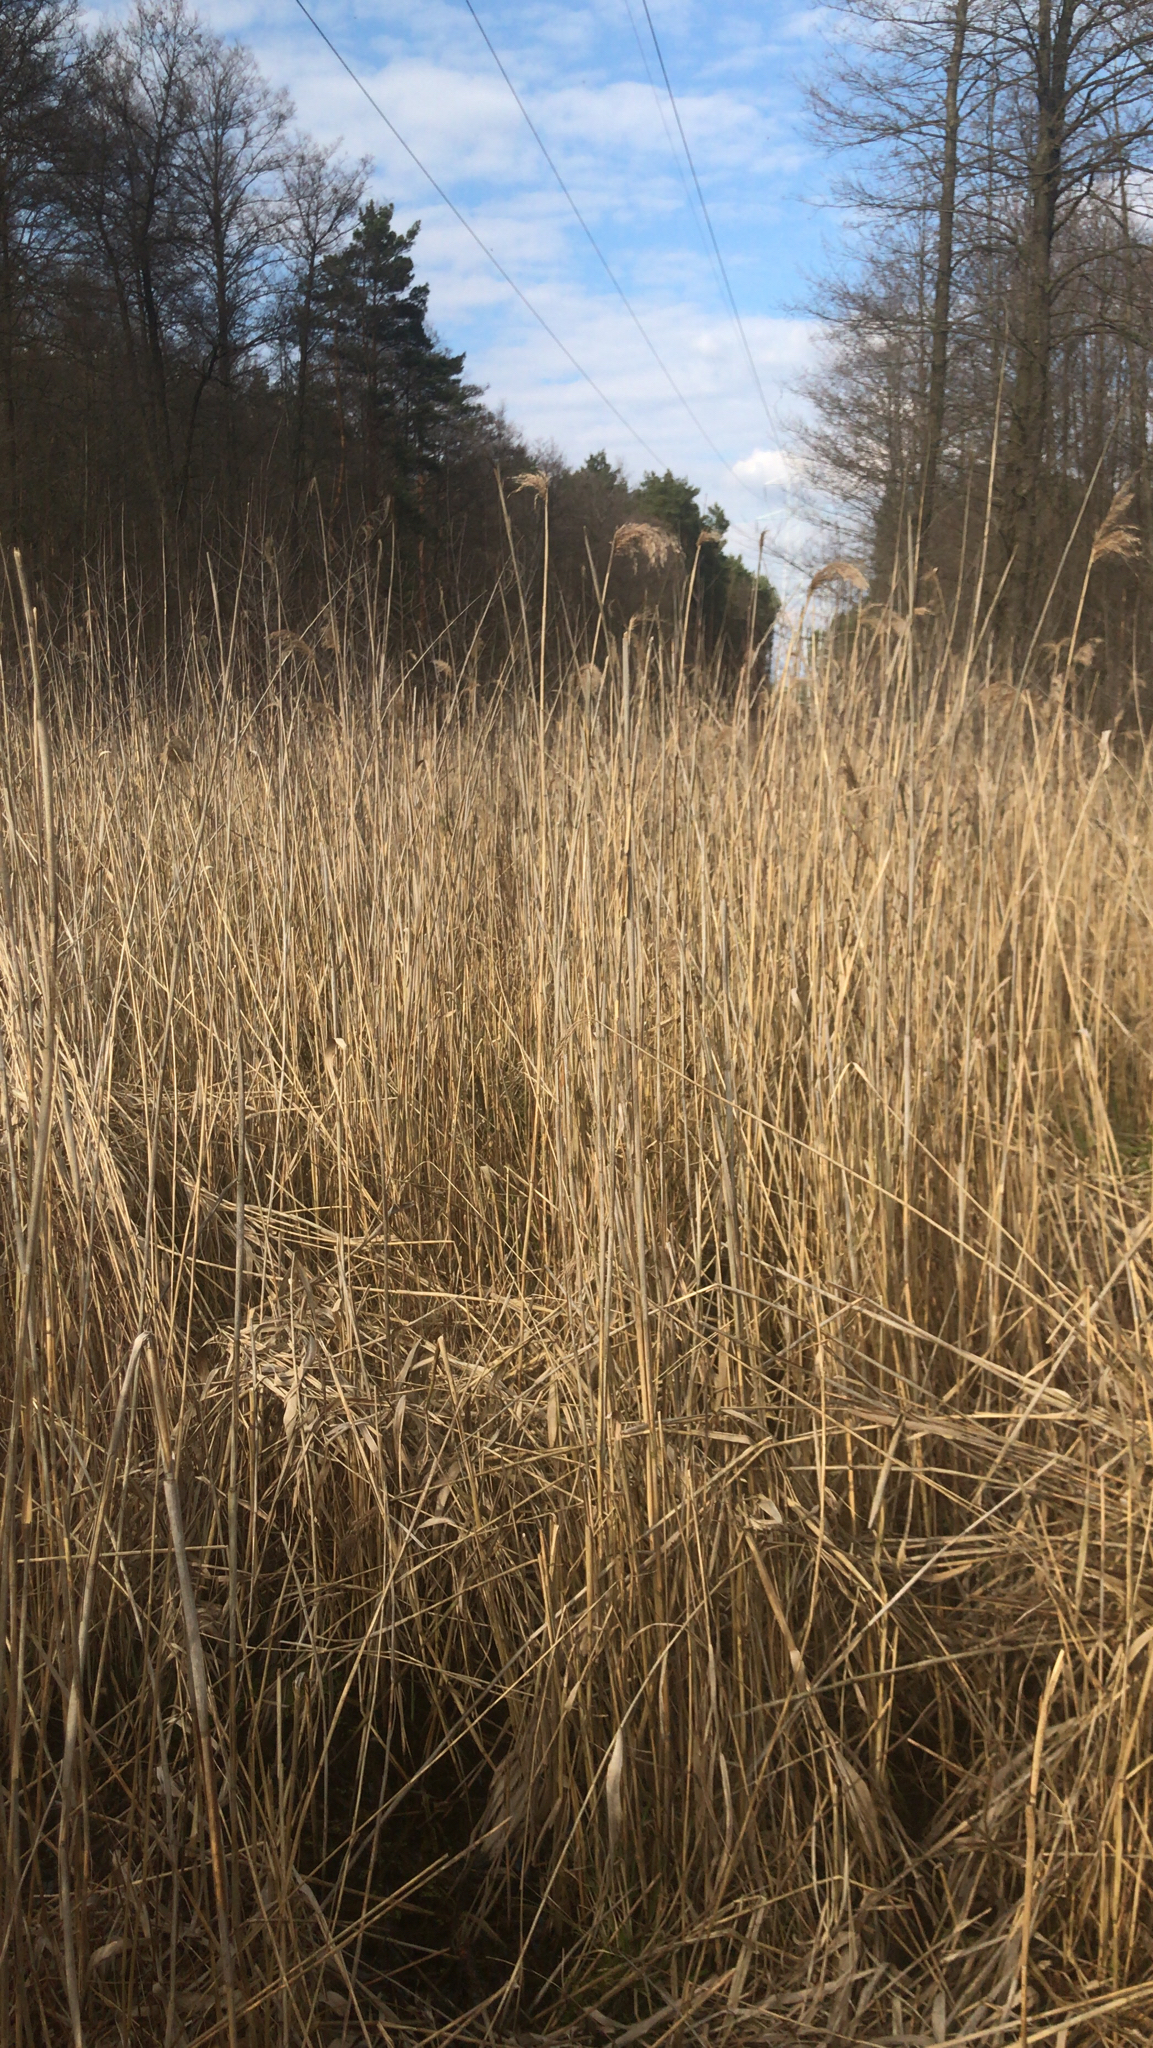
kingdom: Plantae
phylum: Tracheophyta
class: Liliopsida
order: Poales
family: Poaceae
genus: Phragmites
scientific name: Phragmites australis
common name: Common reed
